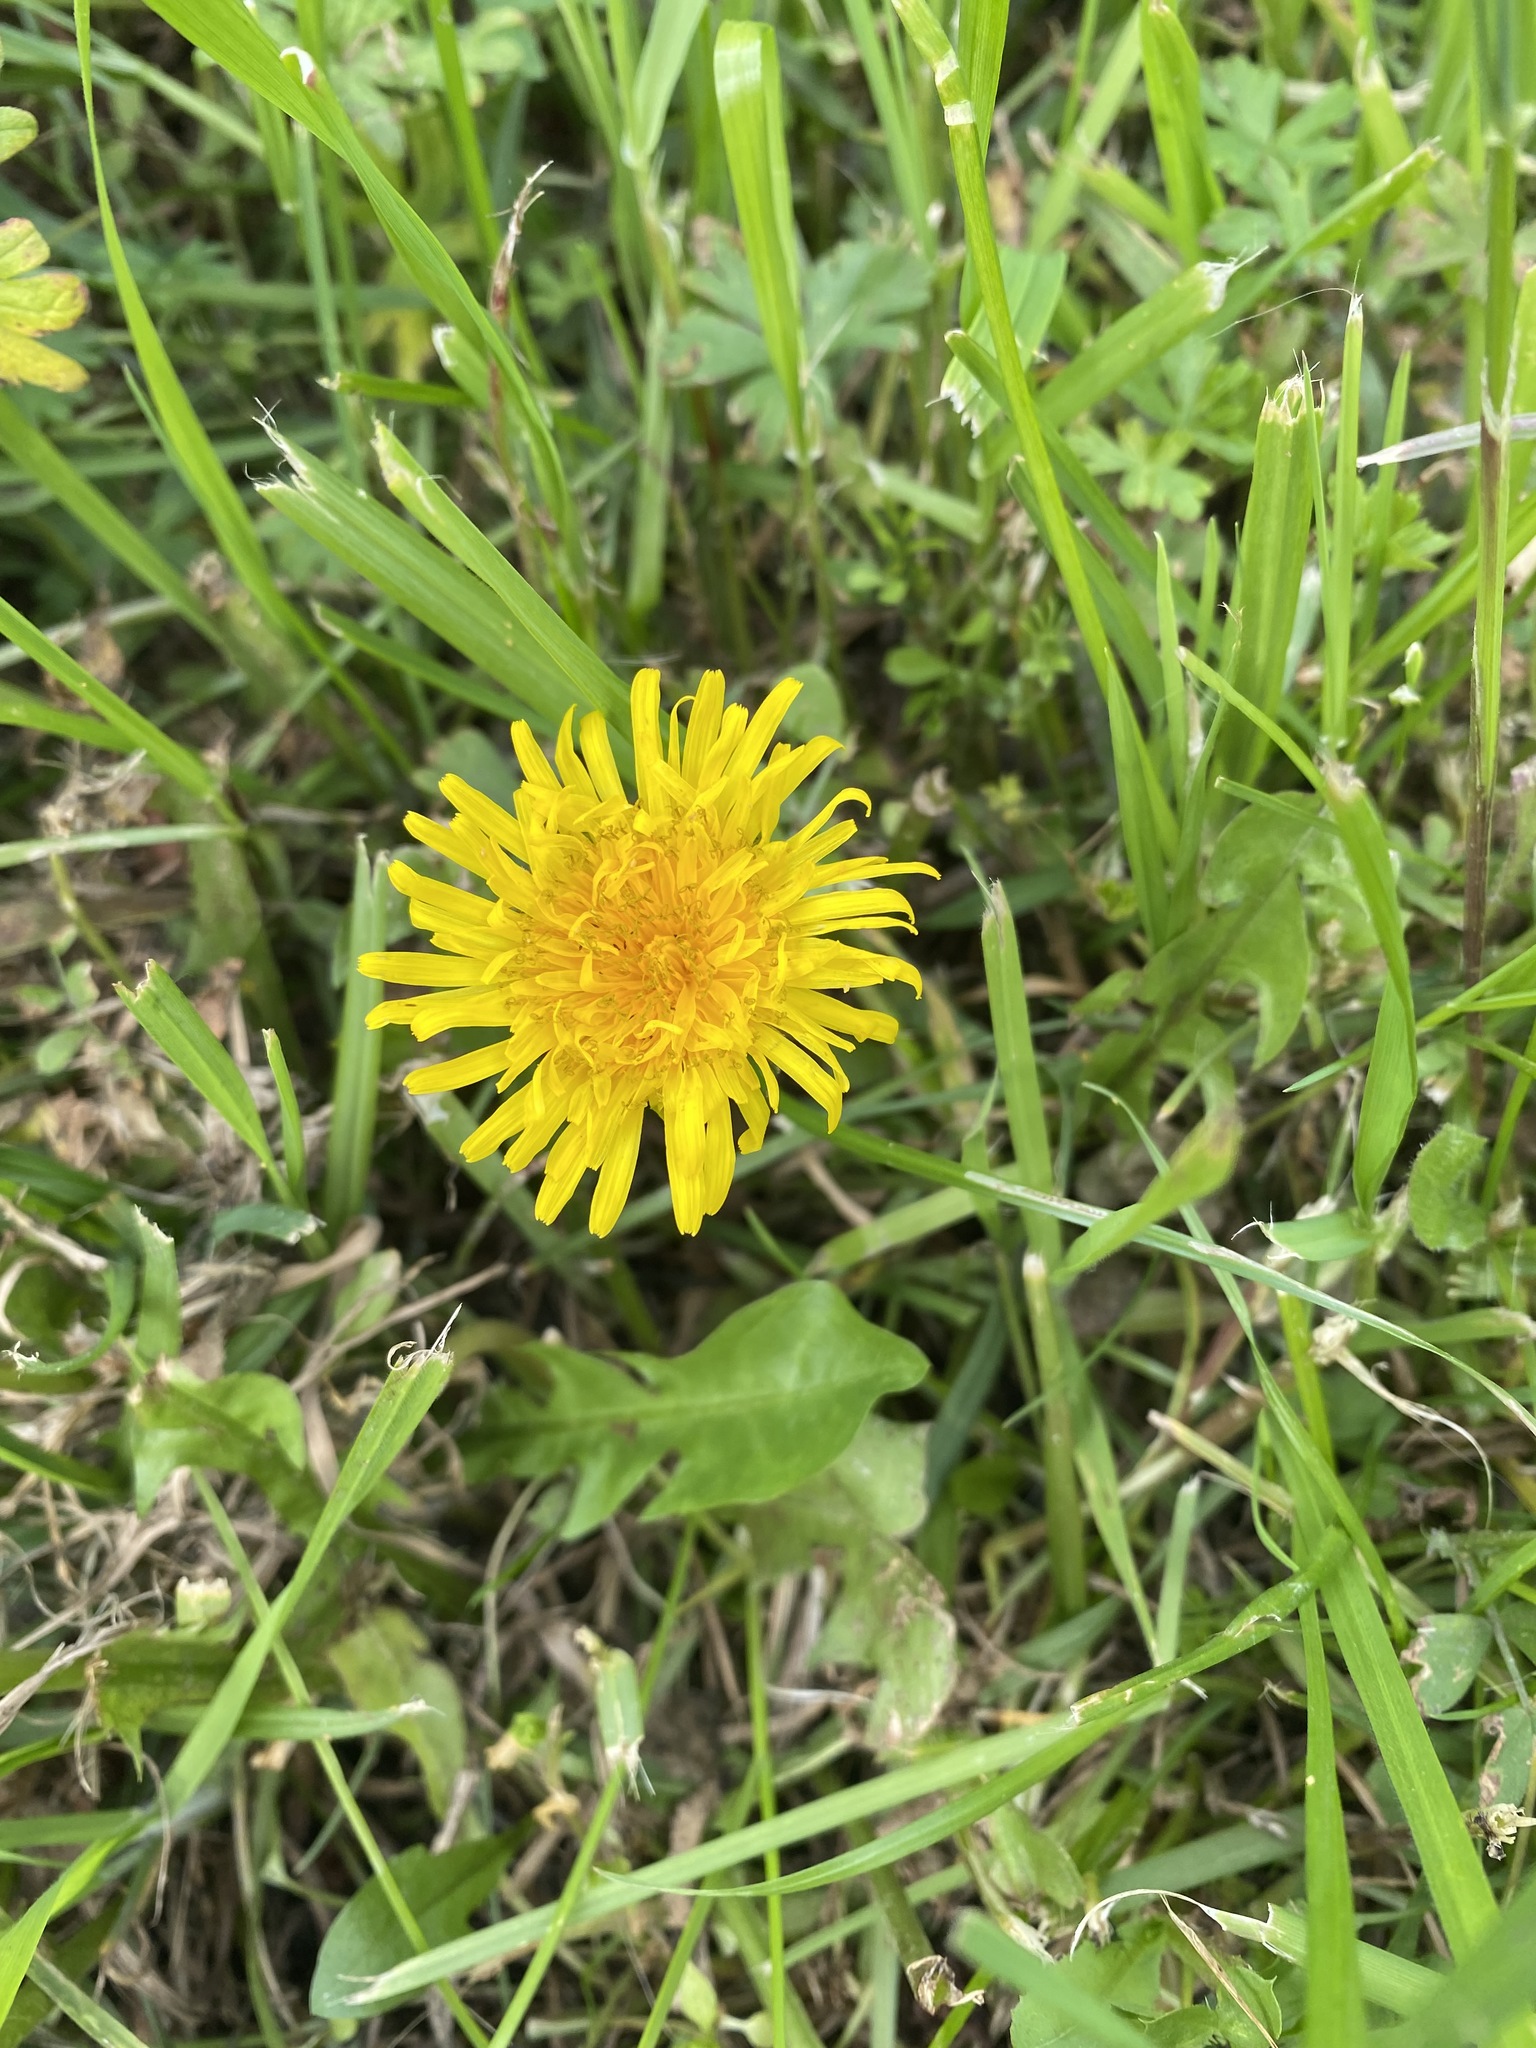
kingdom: Plantae
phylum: Tracheophyta
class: Magnoliopsida
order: Asterales
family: Asteraceae
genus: Taraxacum
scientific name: Taraxacum officinale
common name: Common dandelion
